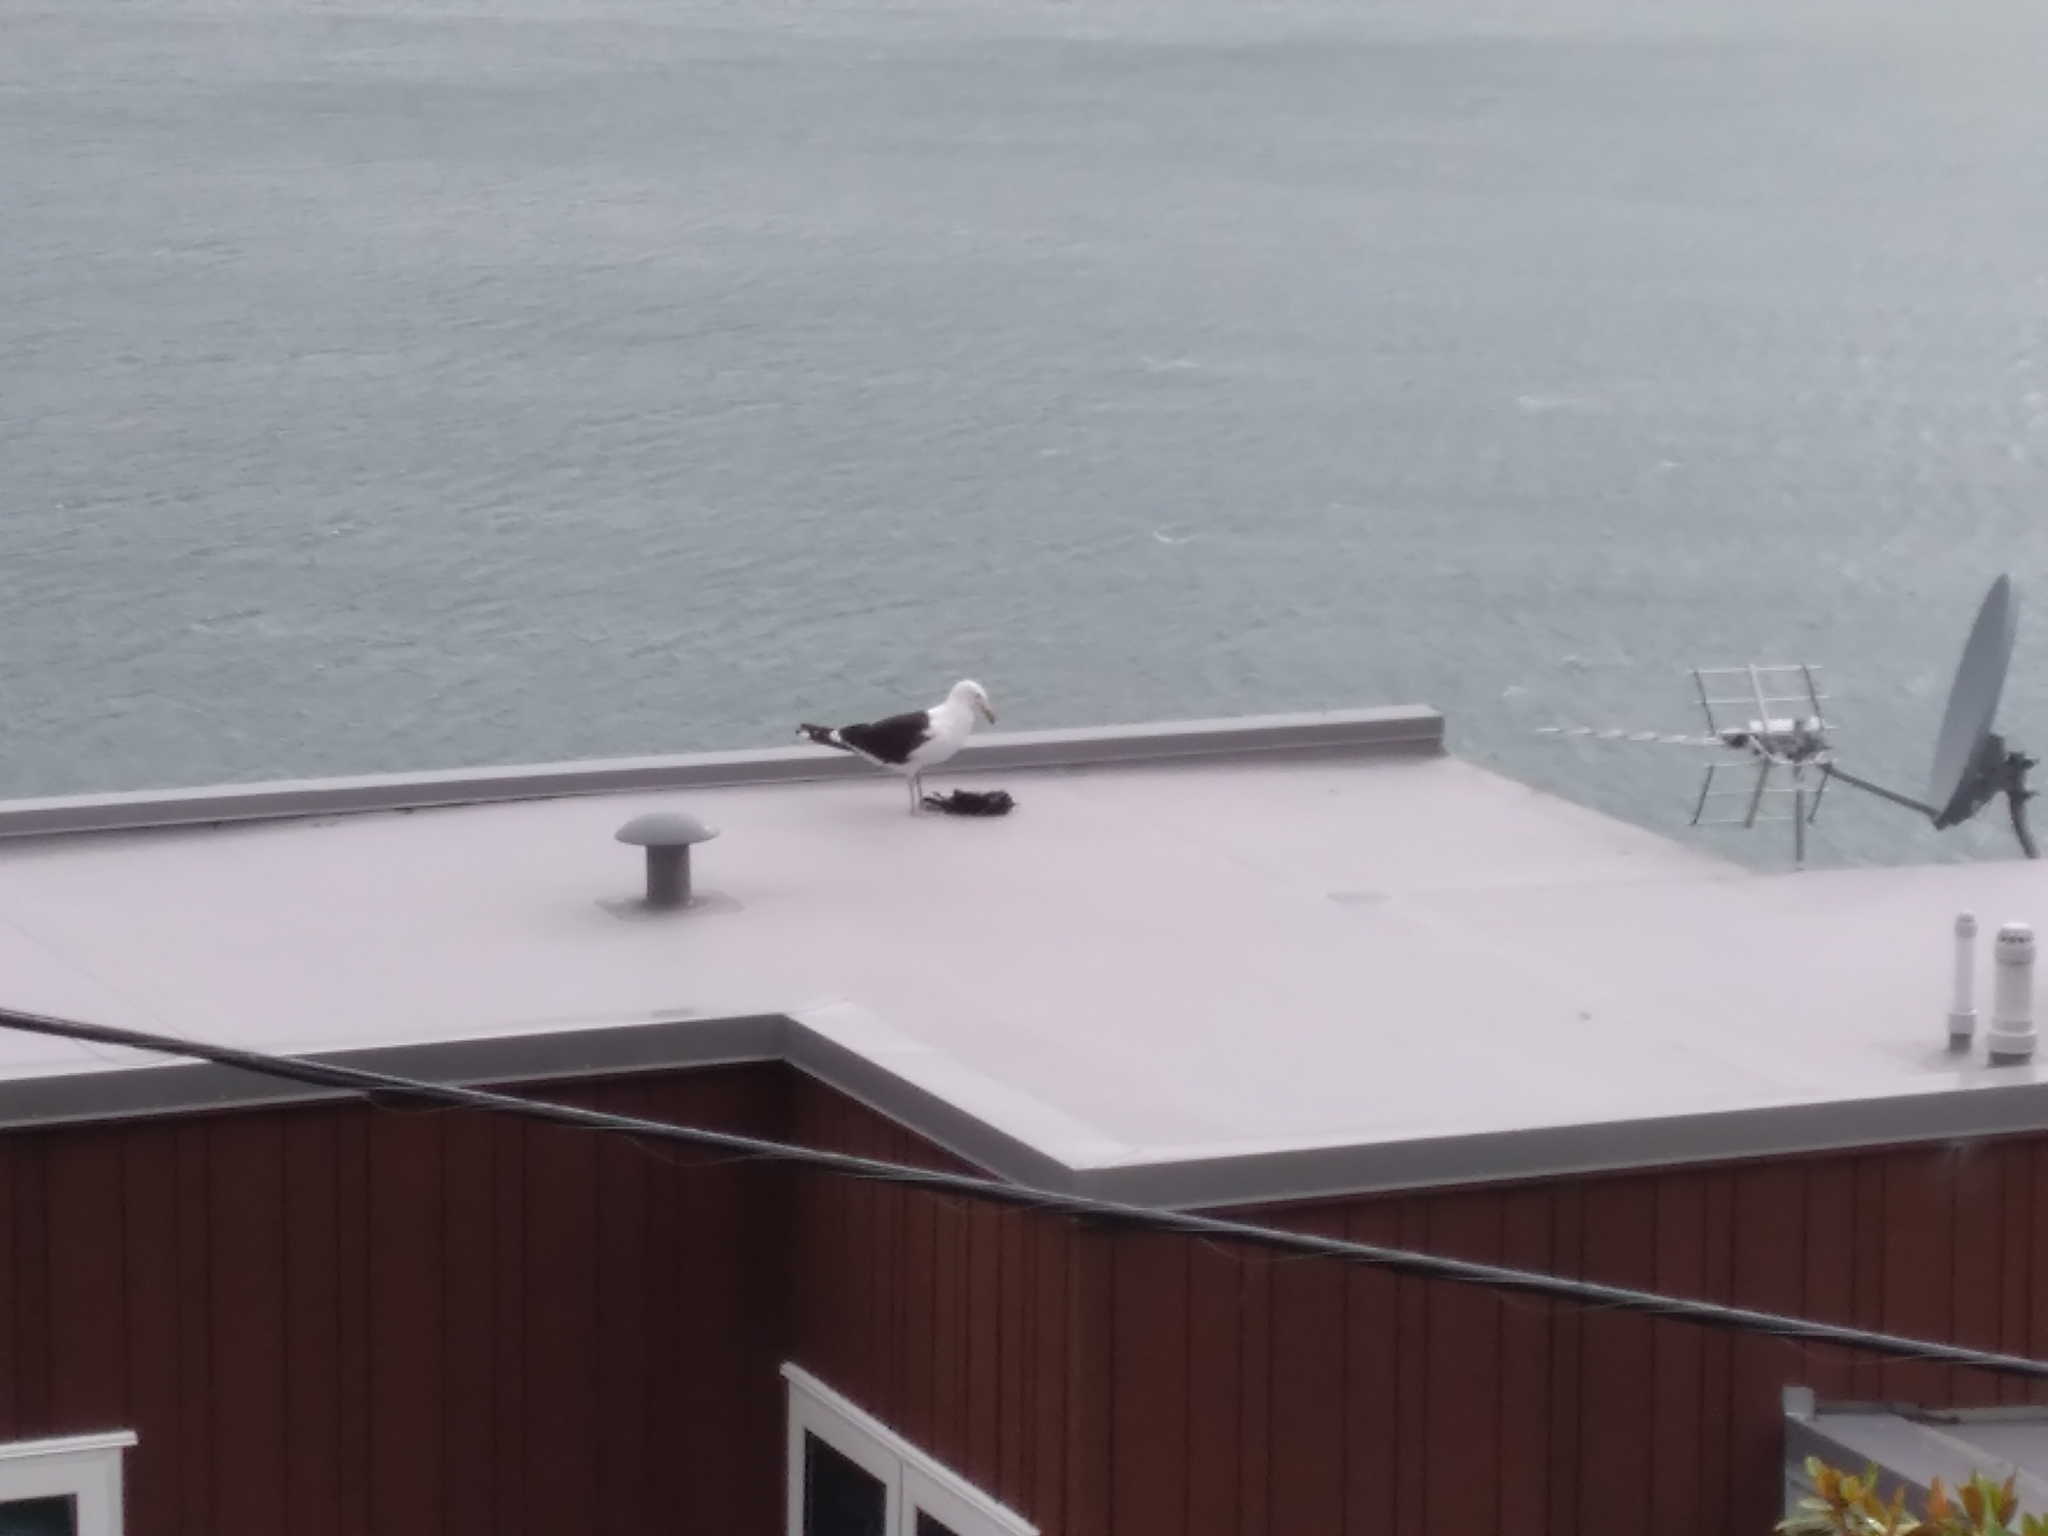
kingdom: Animalia
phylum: Chordata
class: Aves
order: Charadriiformes
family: Laridae
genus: Larus
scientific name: Larus dominicanus
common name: Kelp gull
